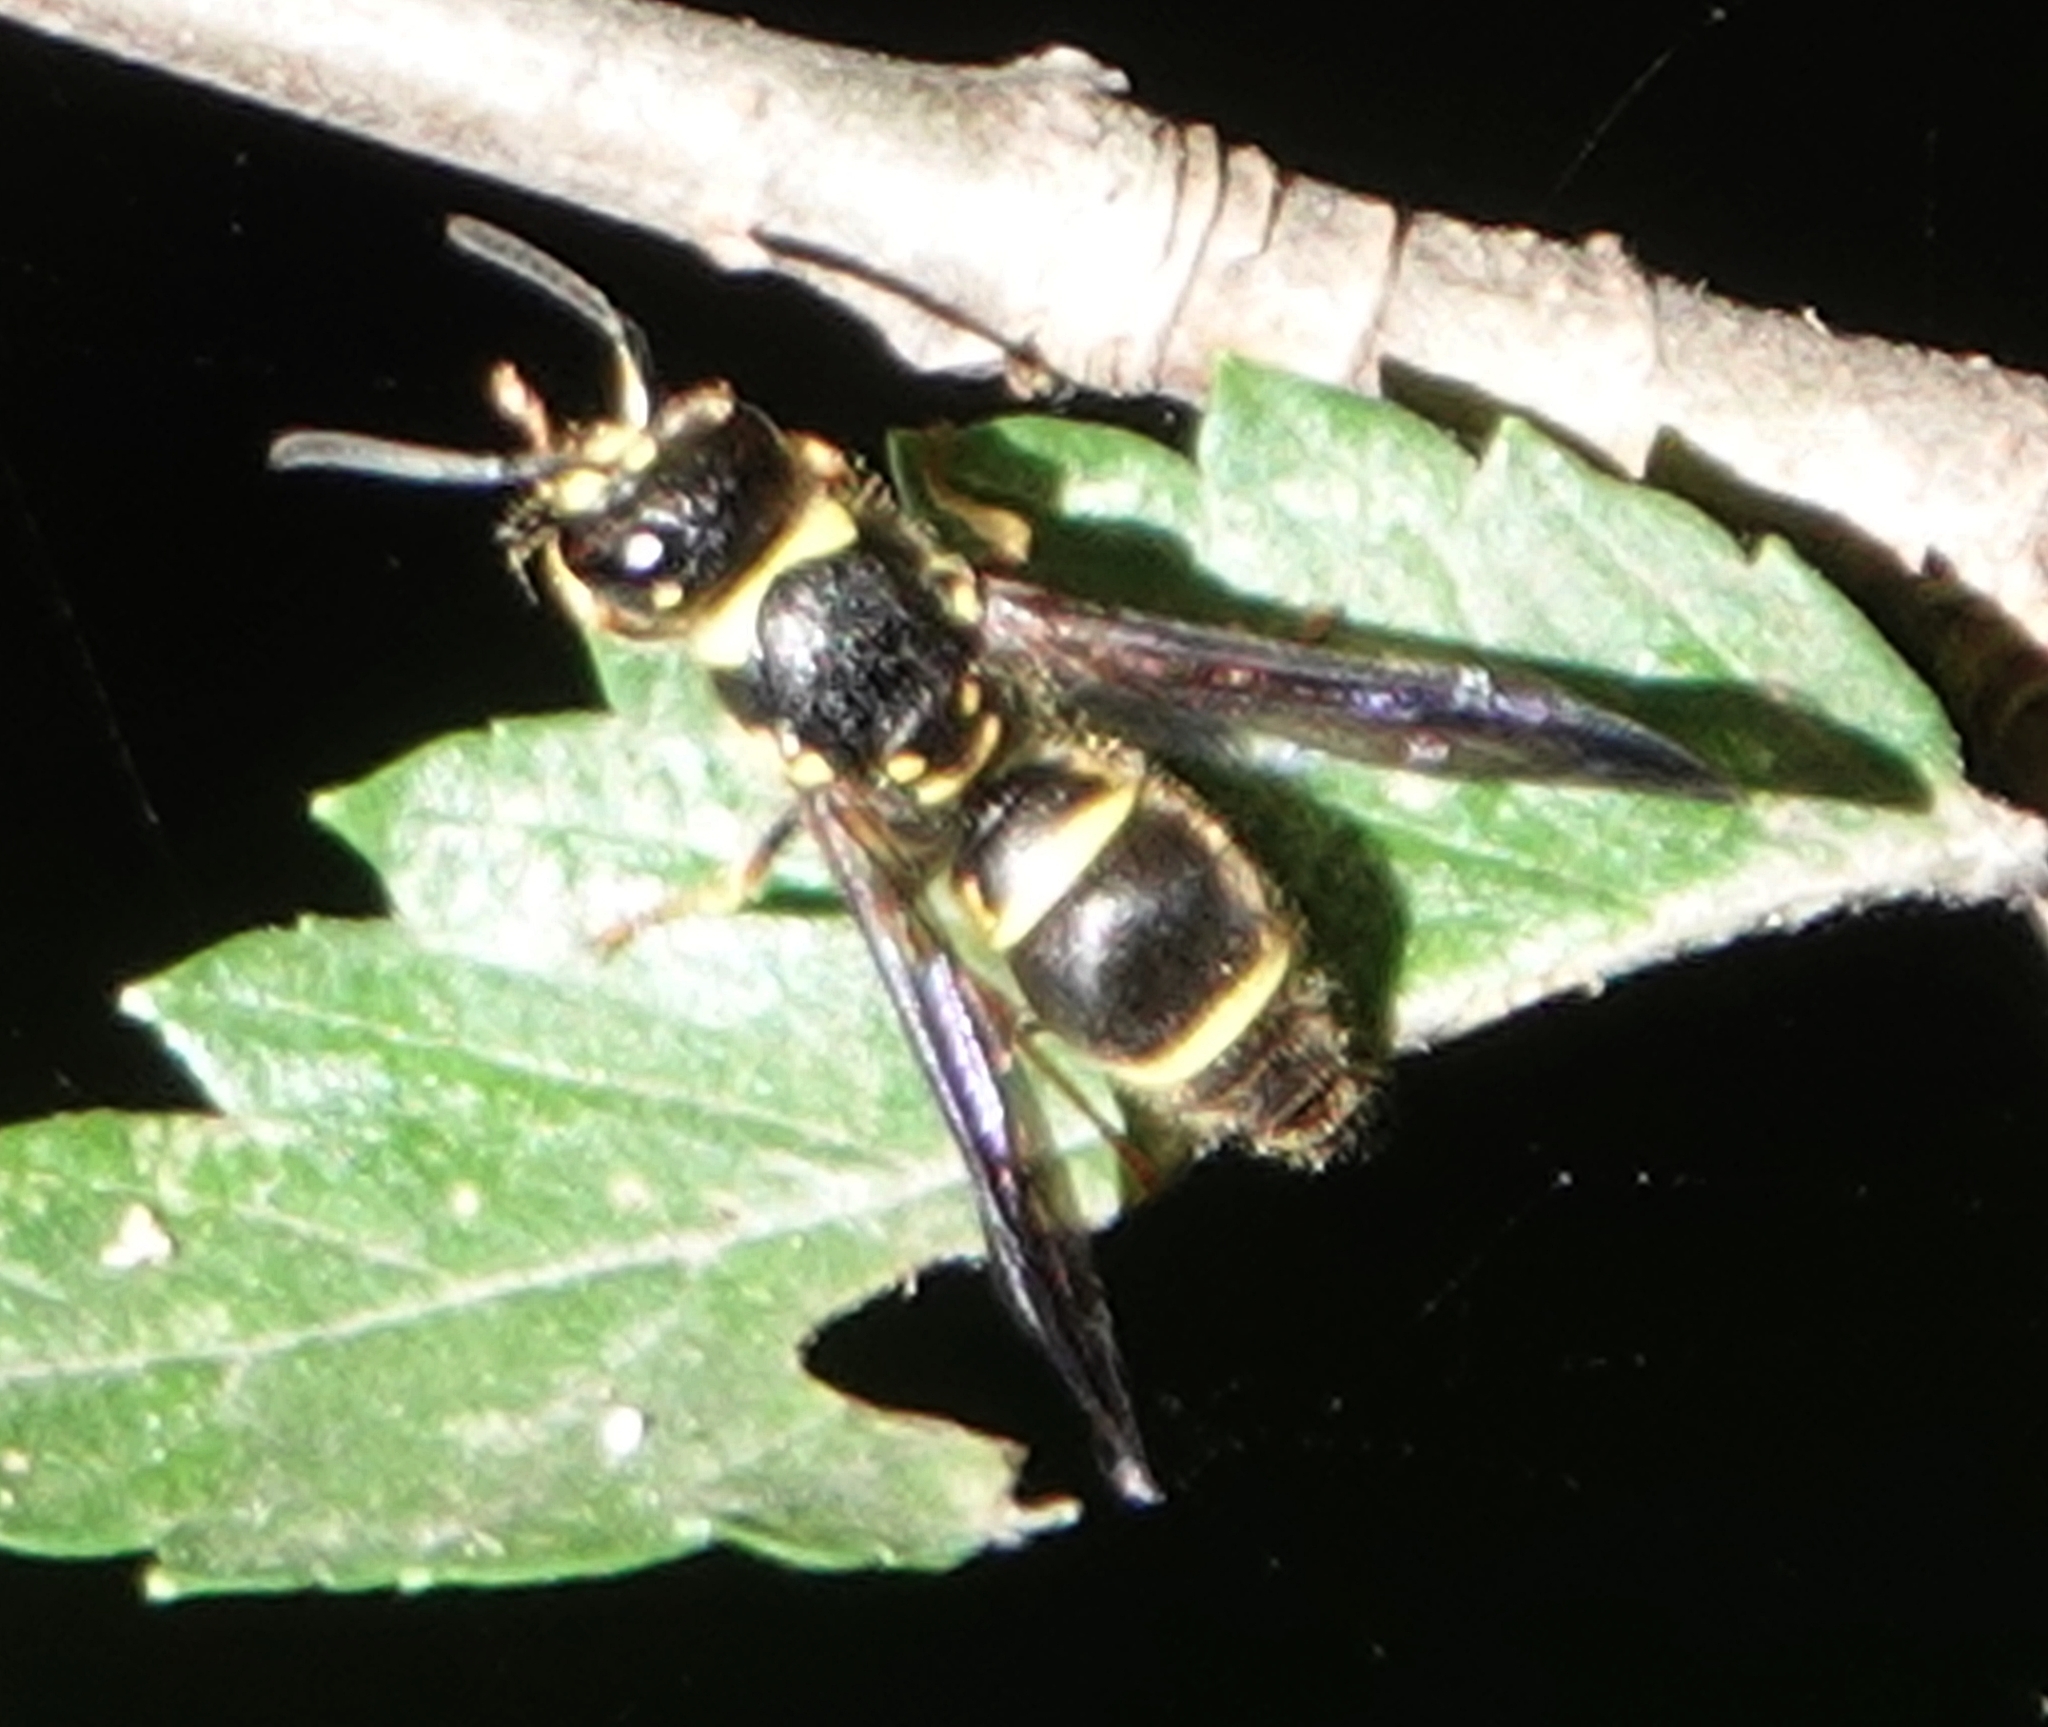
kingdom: Animalia
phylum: Arthropoda
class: Insecta
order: Hymenoptera
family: Vespidae
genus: Ancistrocerus
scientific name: Ancistrocerus campestris
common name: Smiling mason wasp
